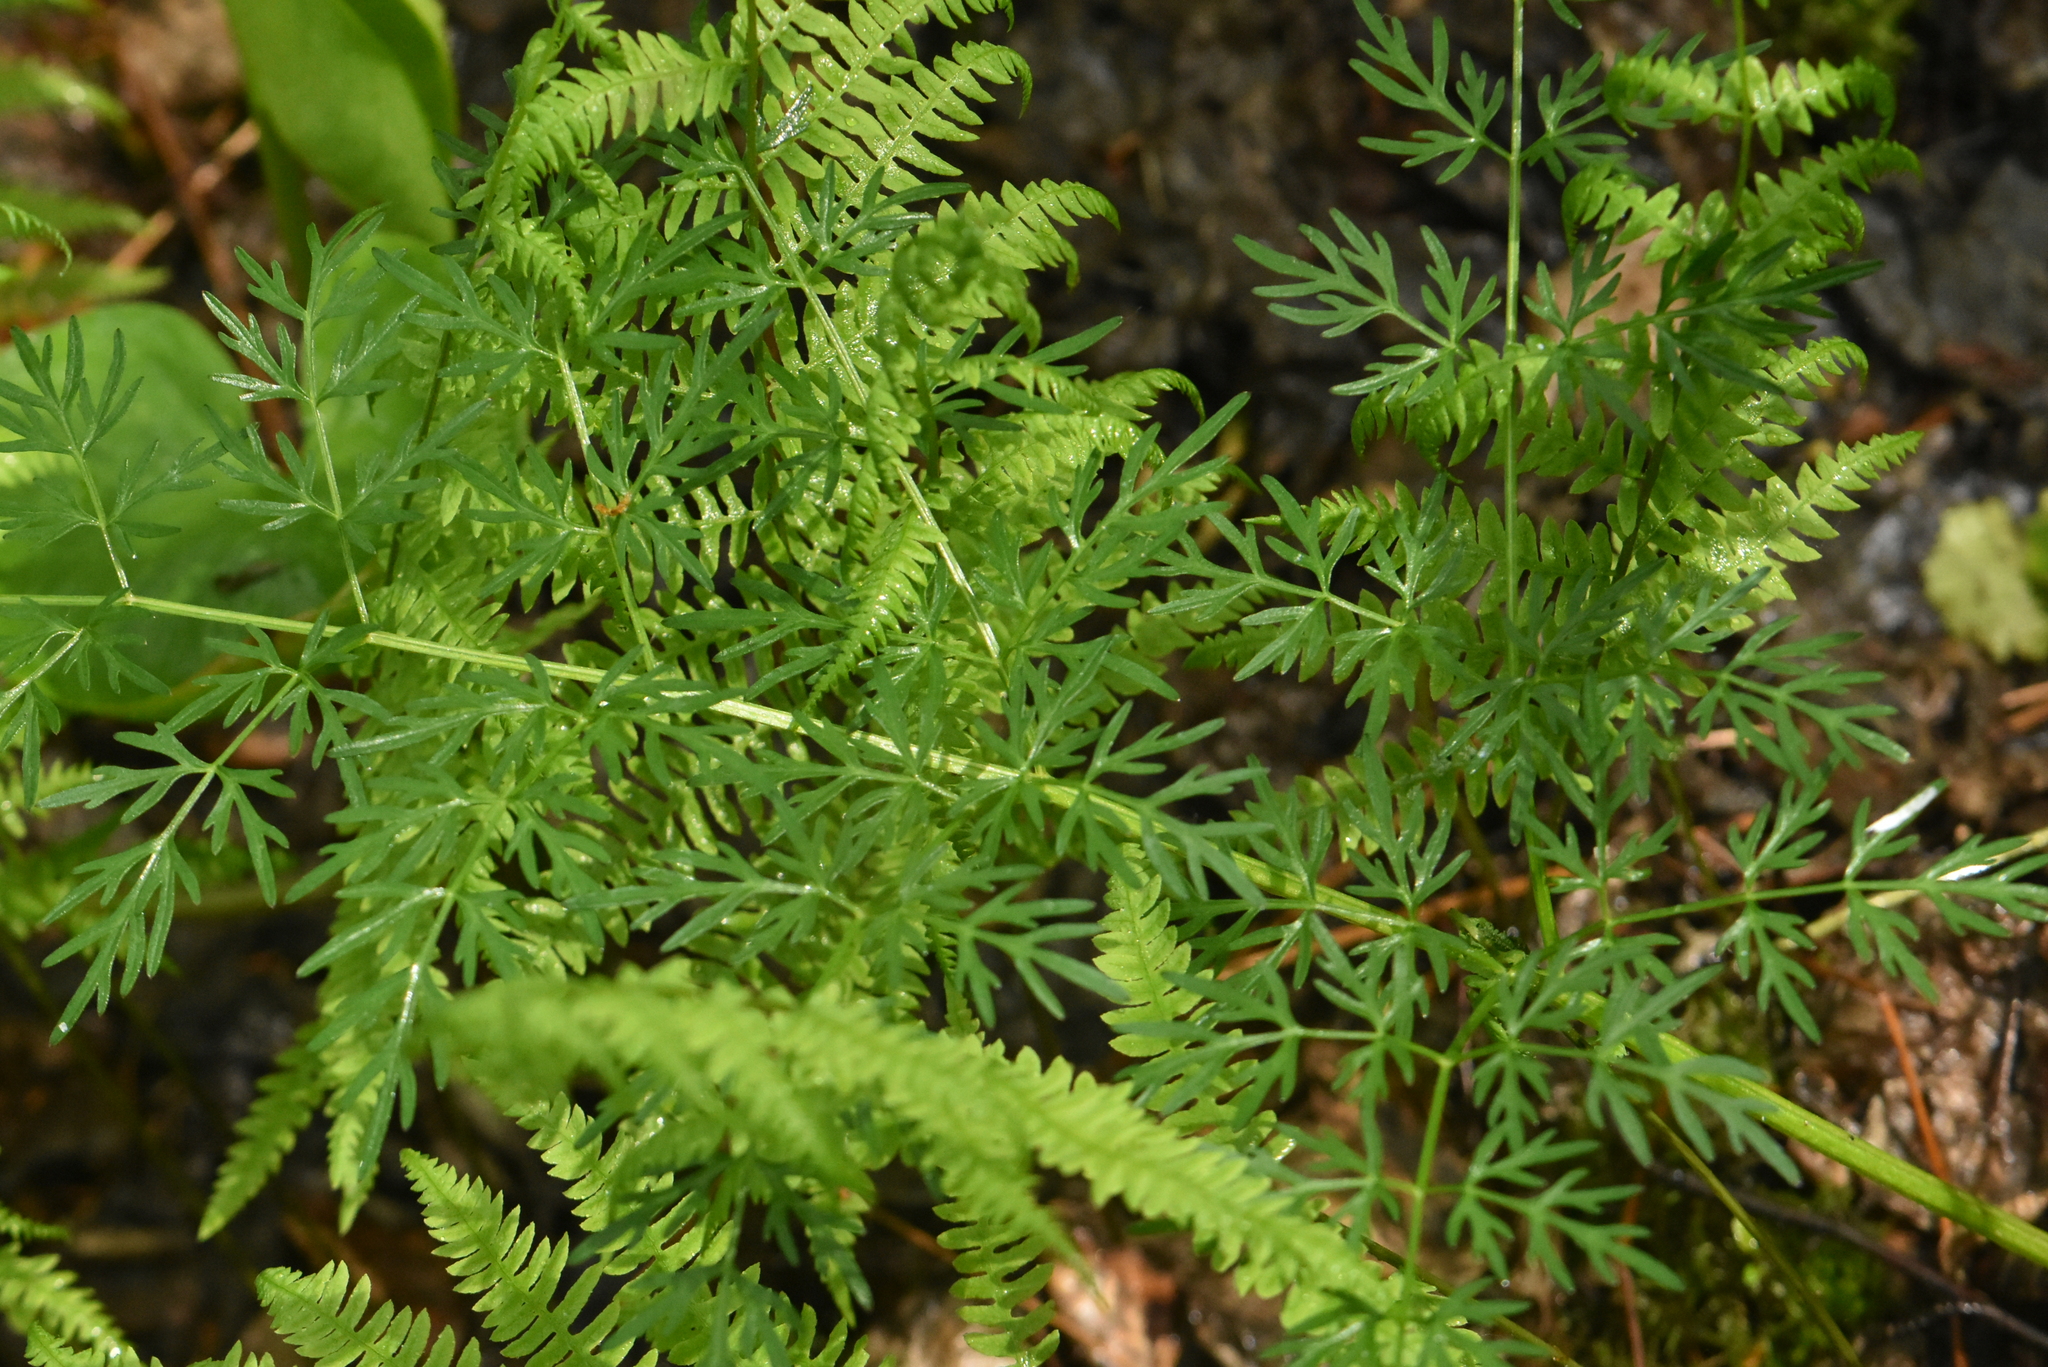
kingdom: Plantae
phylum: Tracheophyta
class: Magnoliopsida
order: Apiales
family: Apiaceae
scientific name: Apiaceae
